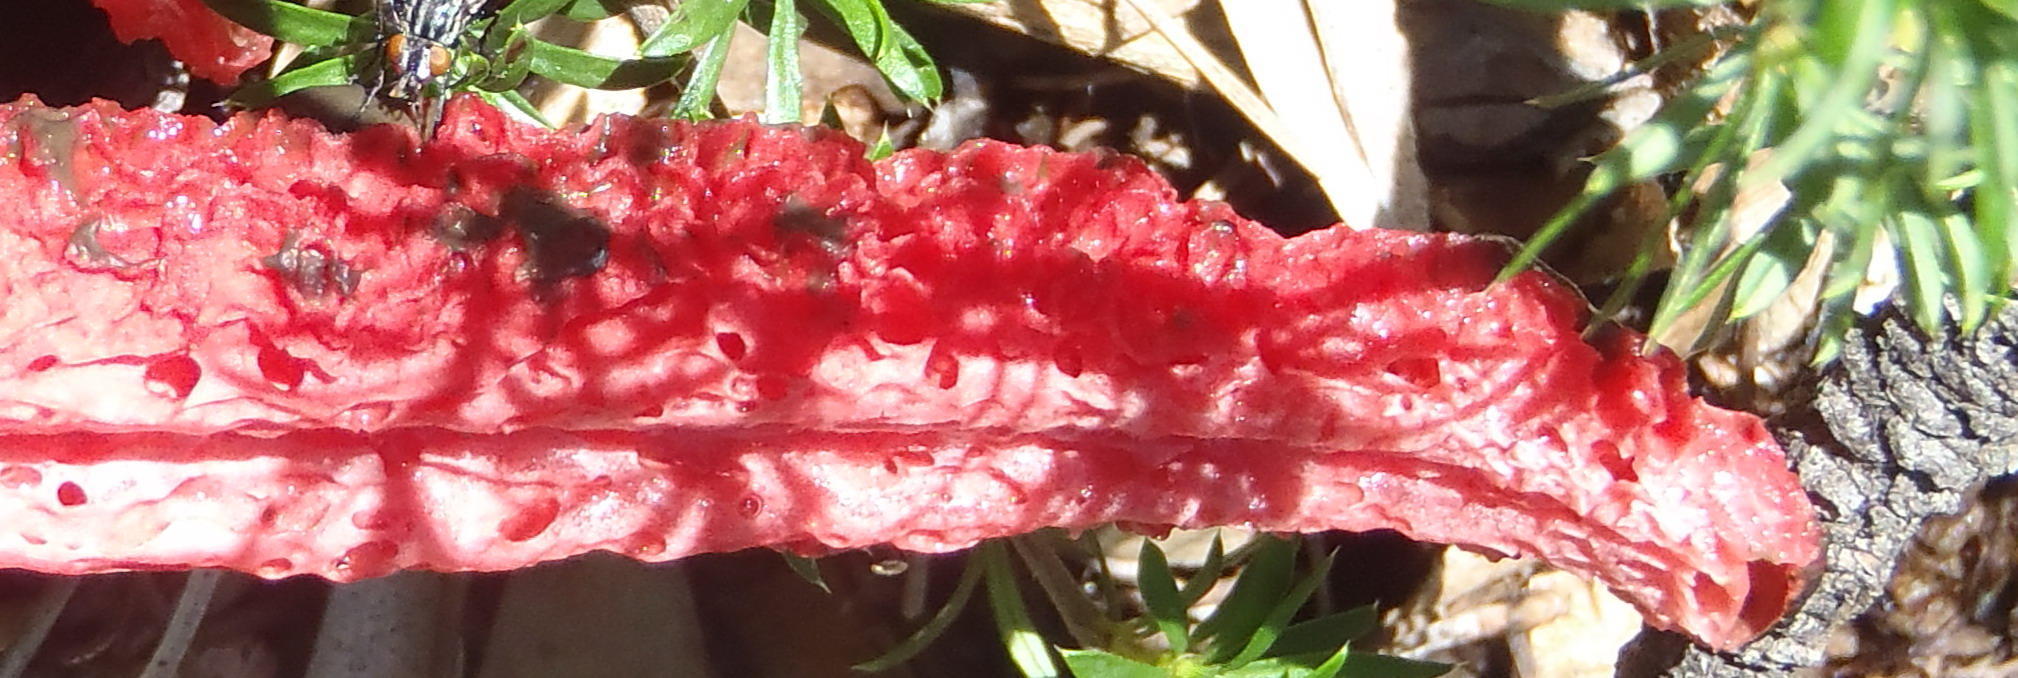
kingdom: Fungi
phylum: Basidiomycota
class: Agaricomycetes
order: Phallales
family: Phallaceae
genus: Clathrus
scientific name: Clathrus archeri
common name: Devil's fingers
